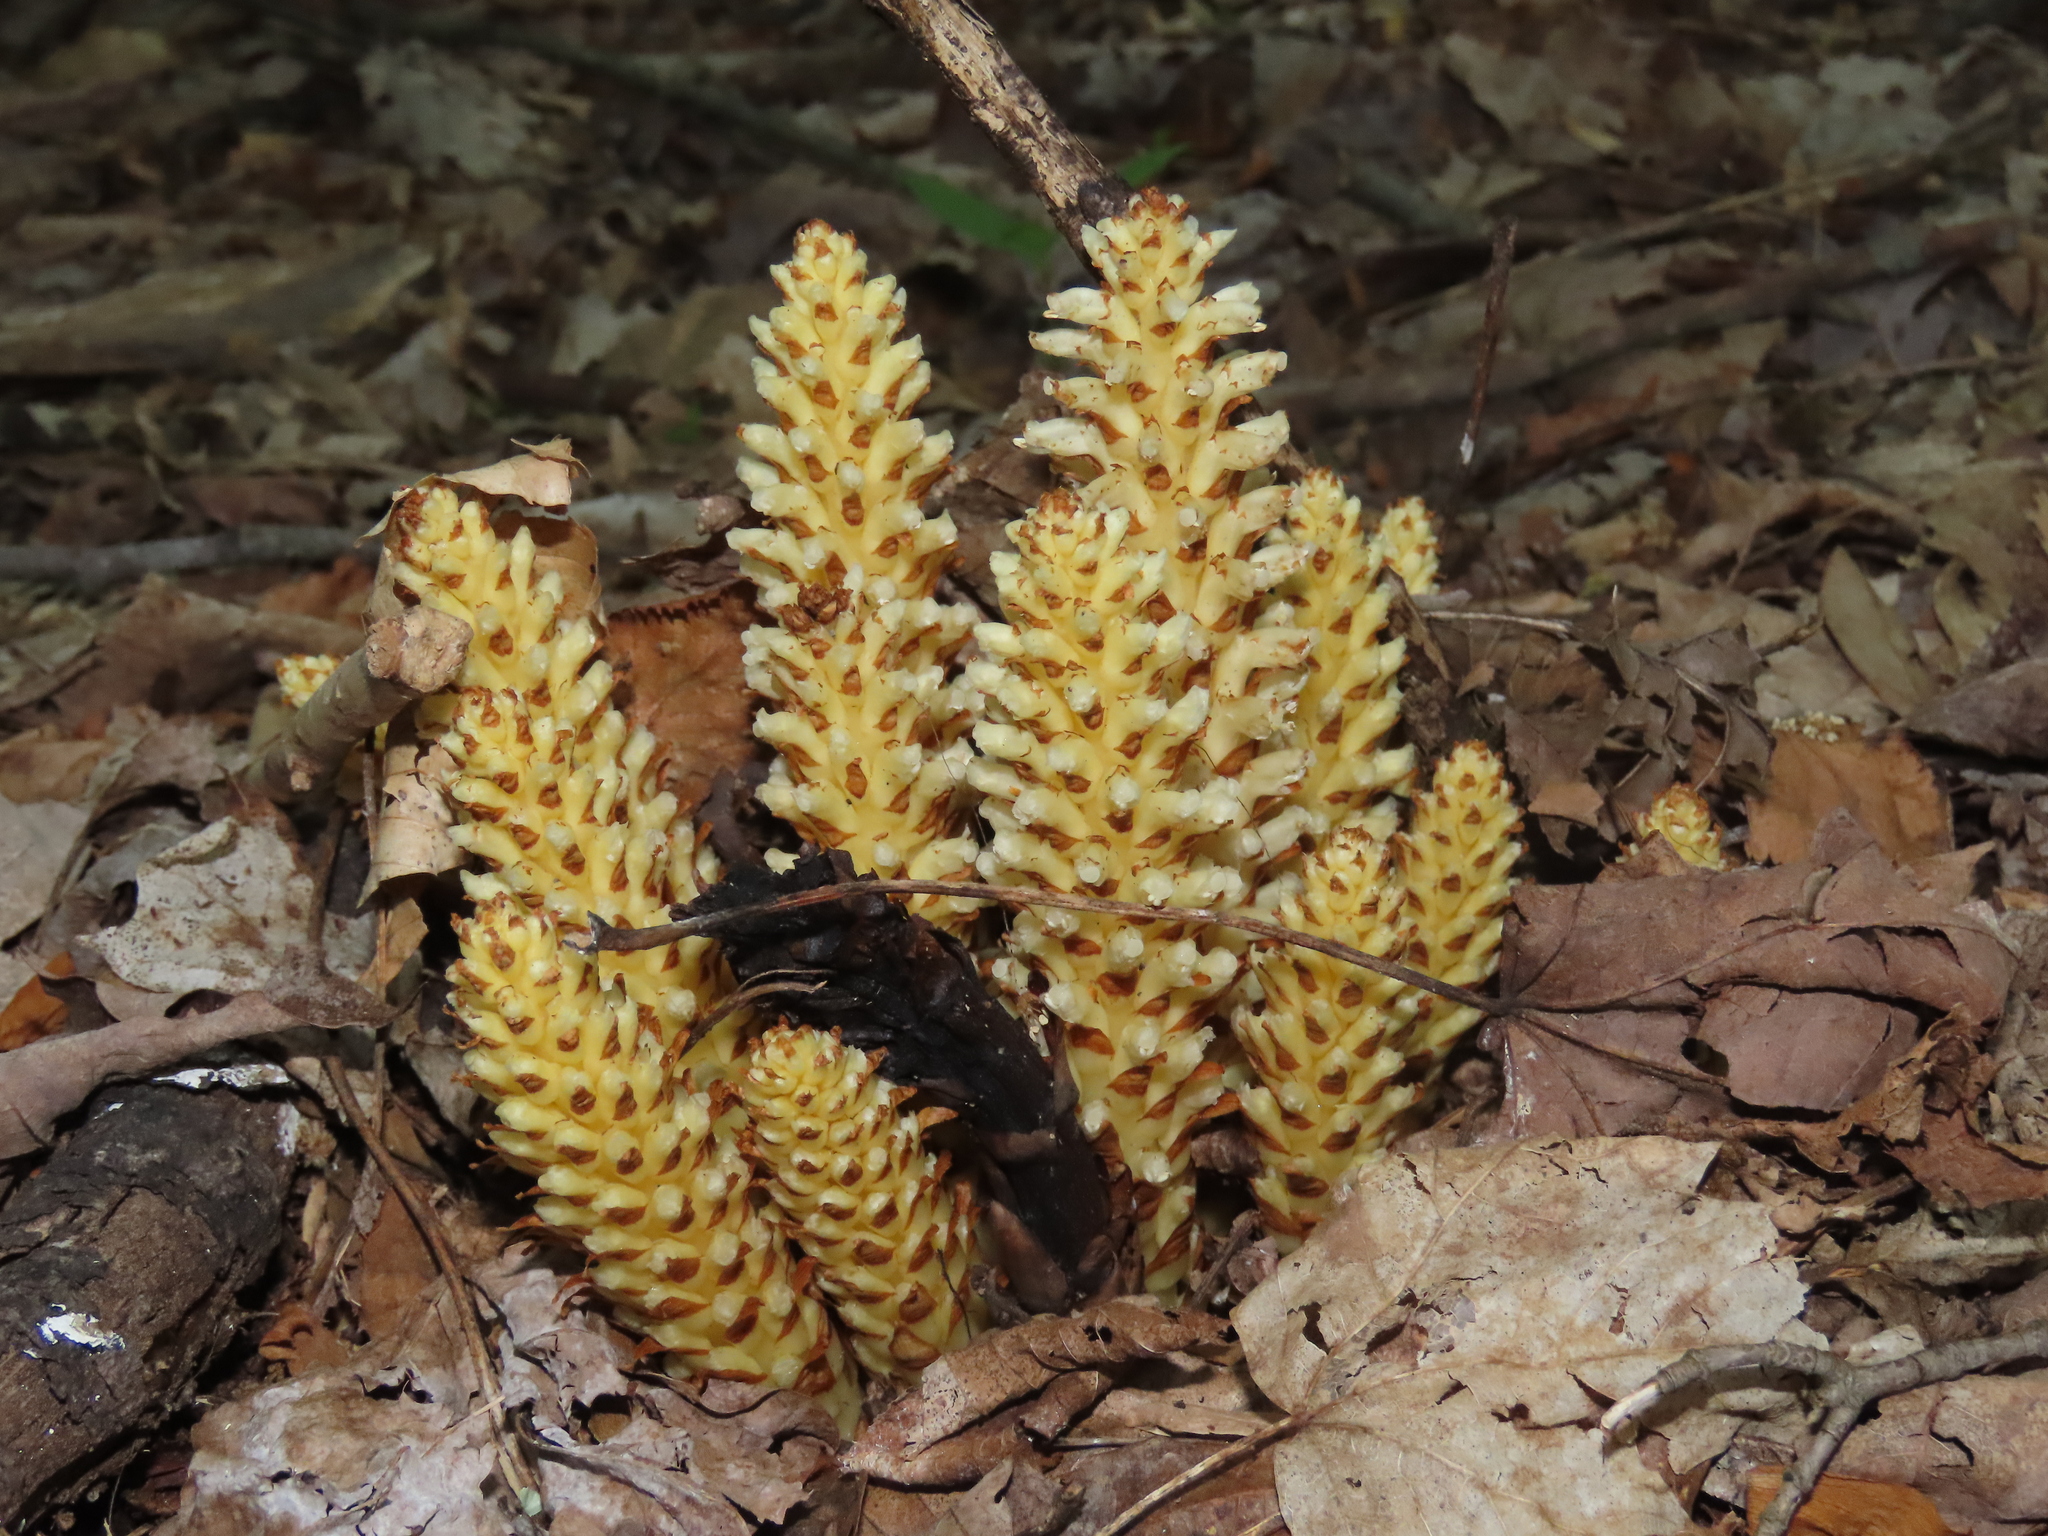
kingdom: Plantae
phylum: Tracheophyta
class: Magnoliopsida
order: Lamiales
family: Orobanchaceae
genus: Conopholis
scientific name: Conopholis americana
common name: American cancer-root
